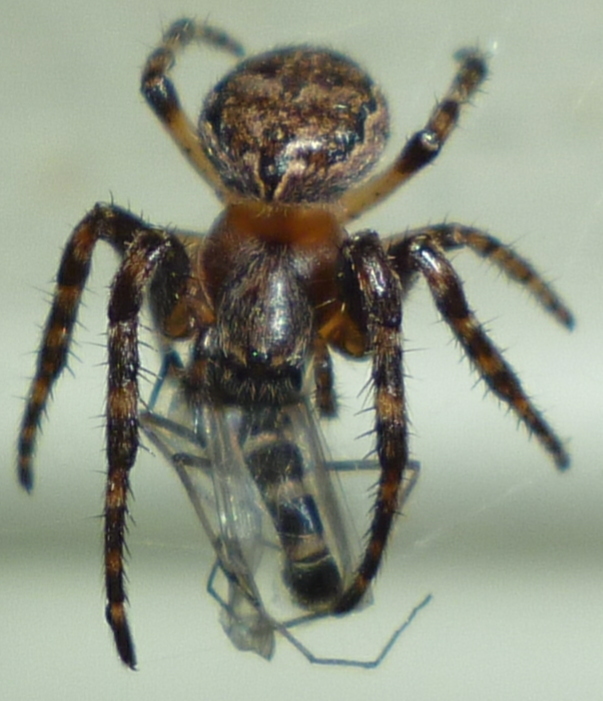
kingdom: Animalia
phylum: Arthropoda
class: Arachnida
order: Araneae
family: Araneidae
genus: Larinioides
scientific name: Larinioides patagiatus
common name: Ornamental orbweaver
